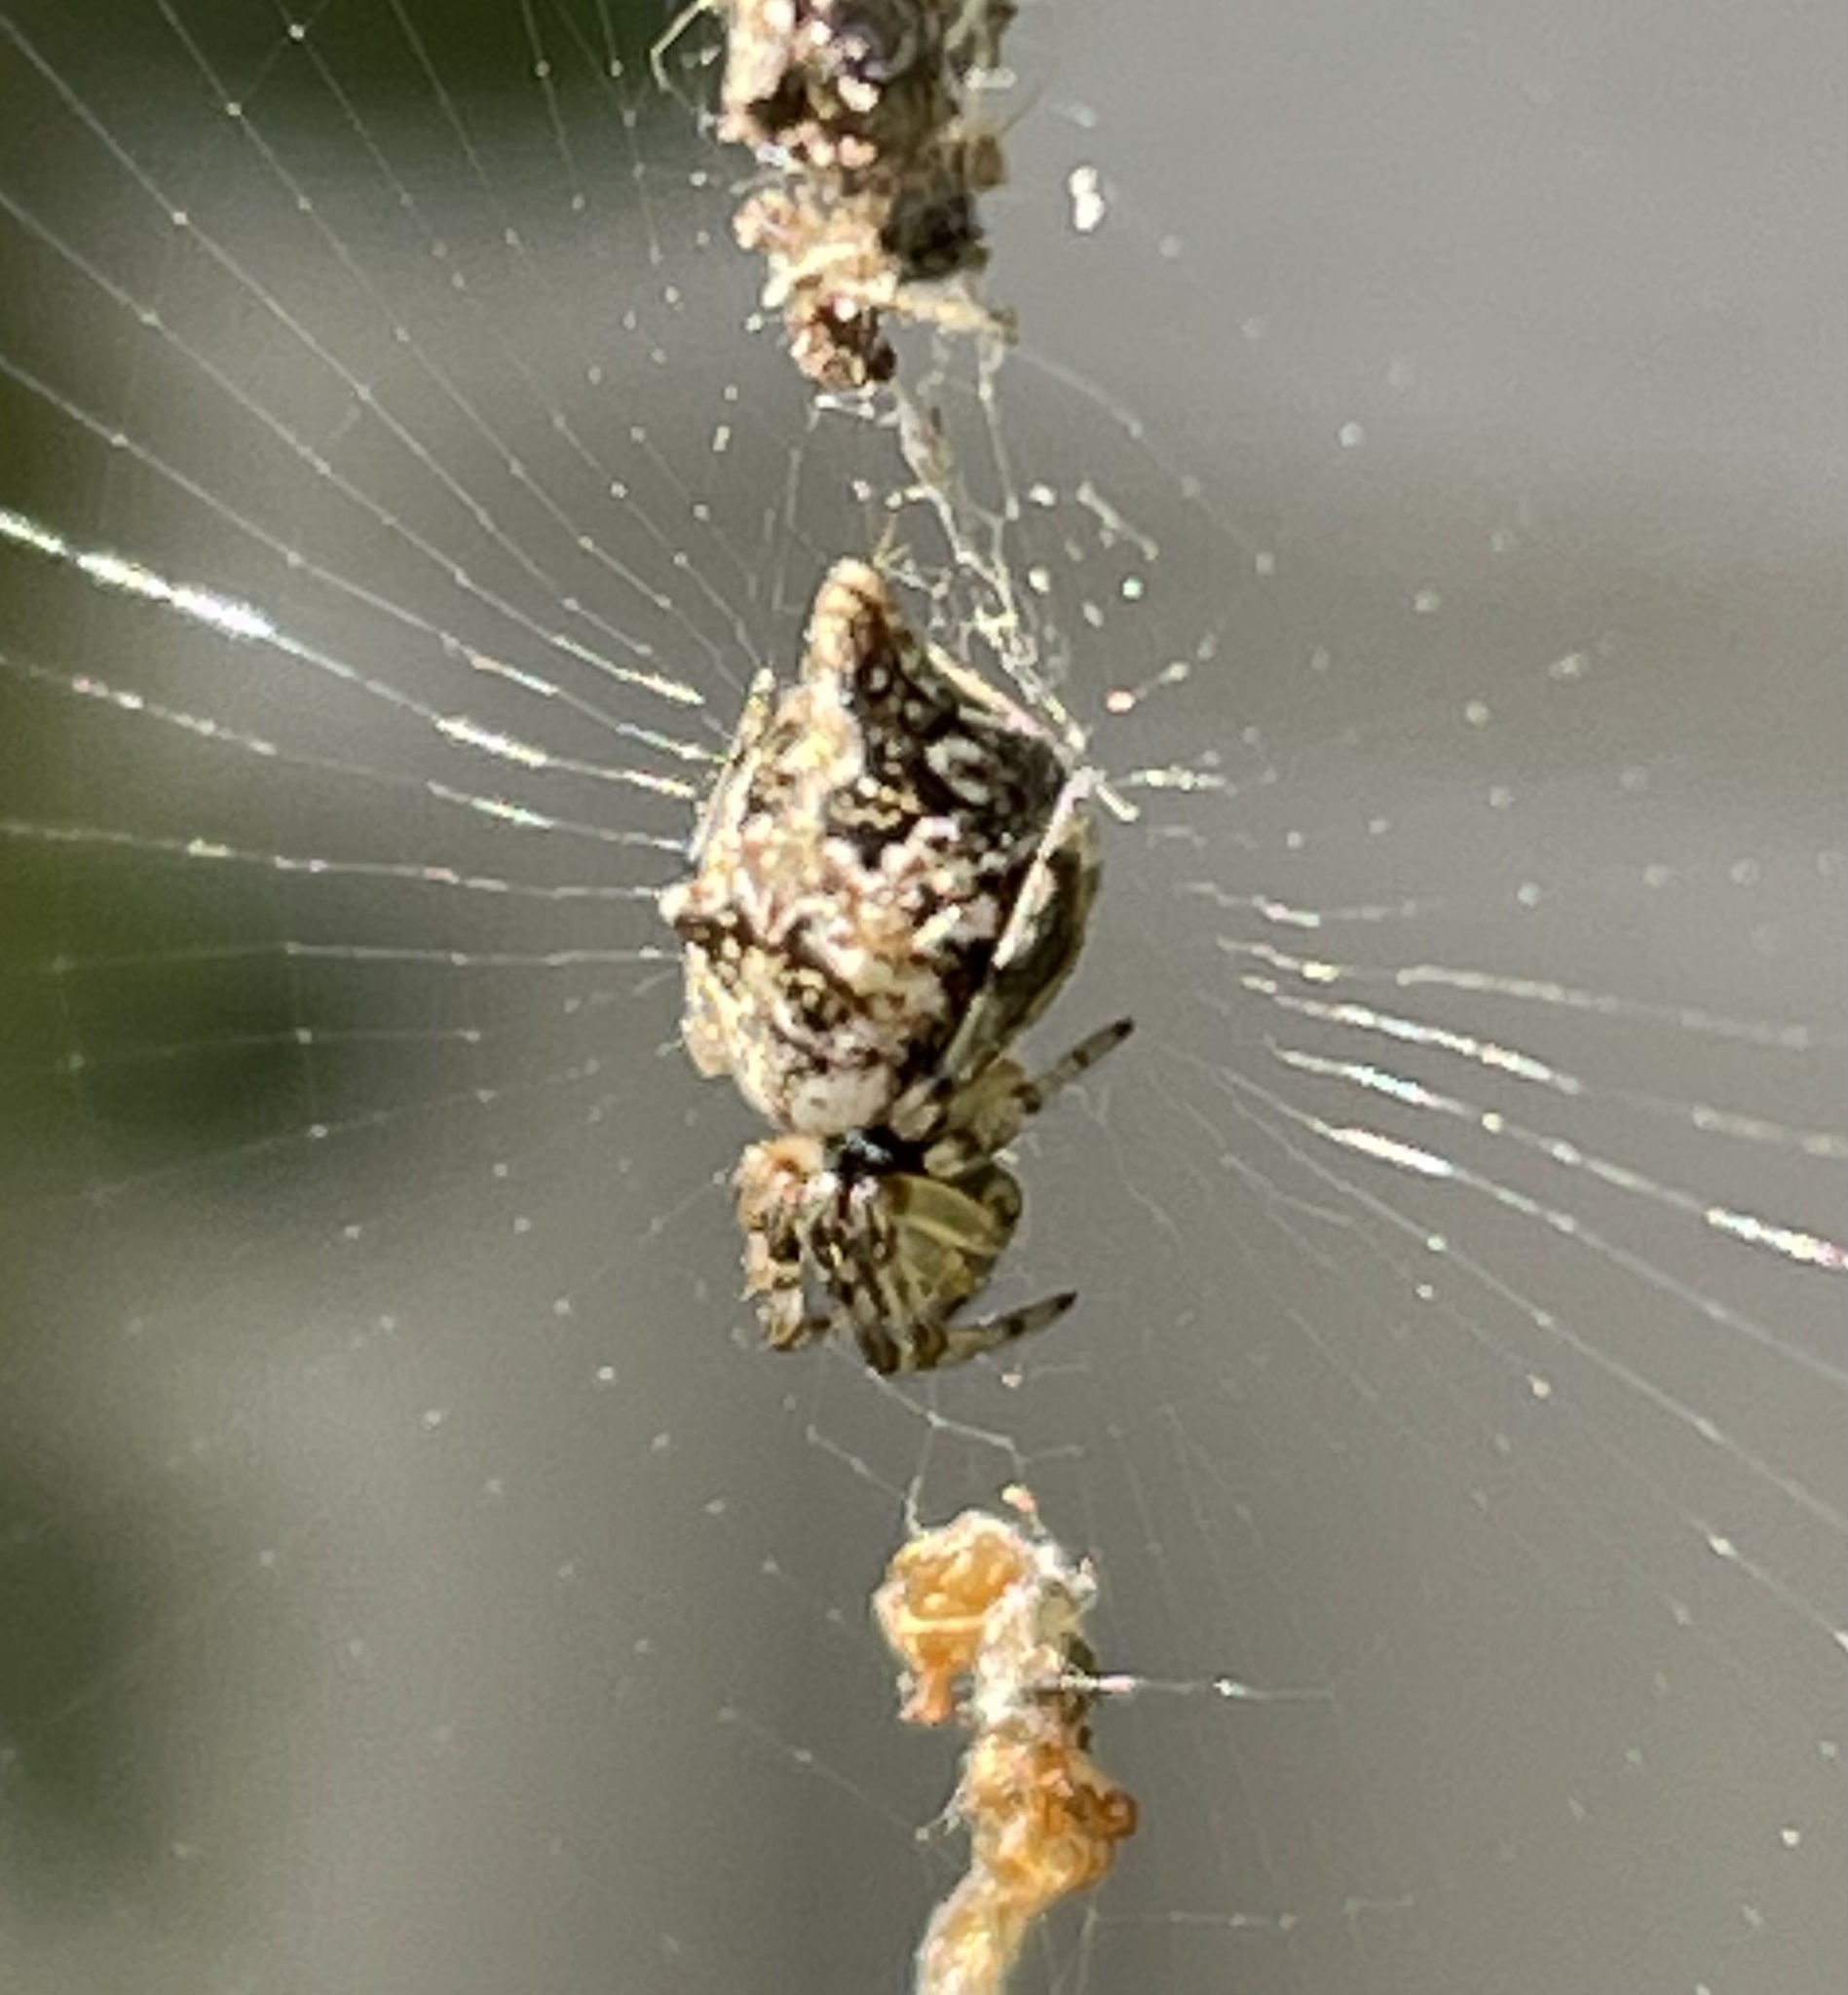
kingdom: Animalia
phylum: Arthropoda
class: Arachnida
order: Araneae
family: Araneidae
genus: Cyclosa
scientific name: Cyclosa turbinata
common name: Orb weavers
